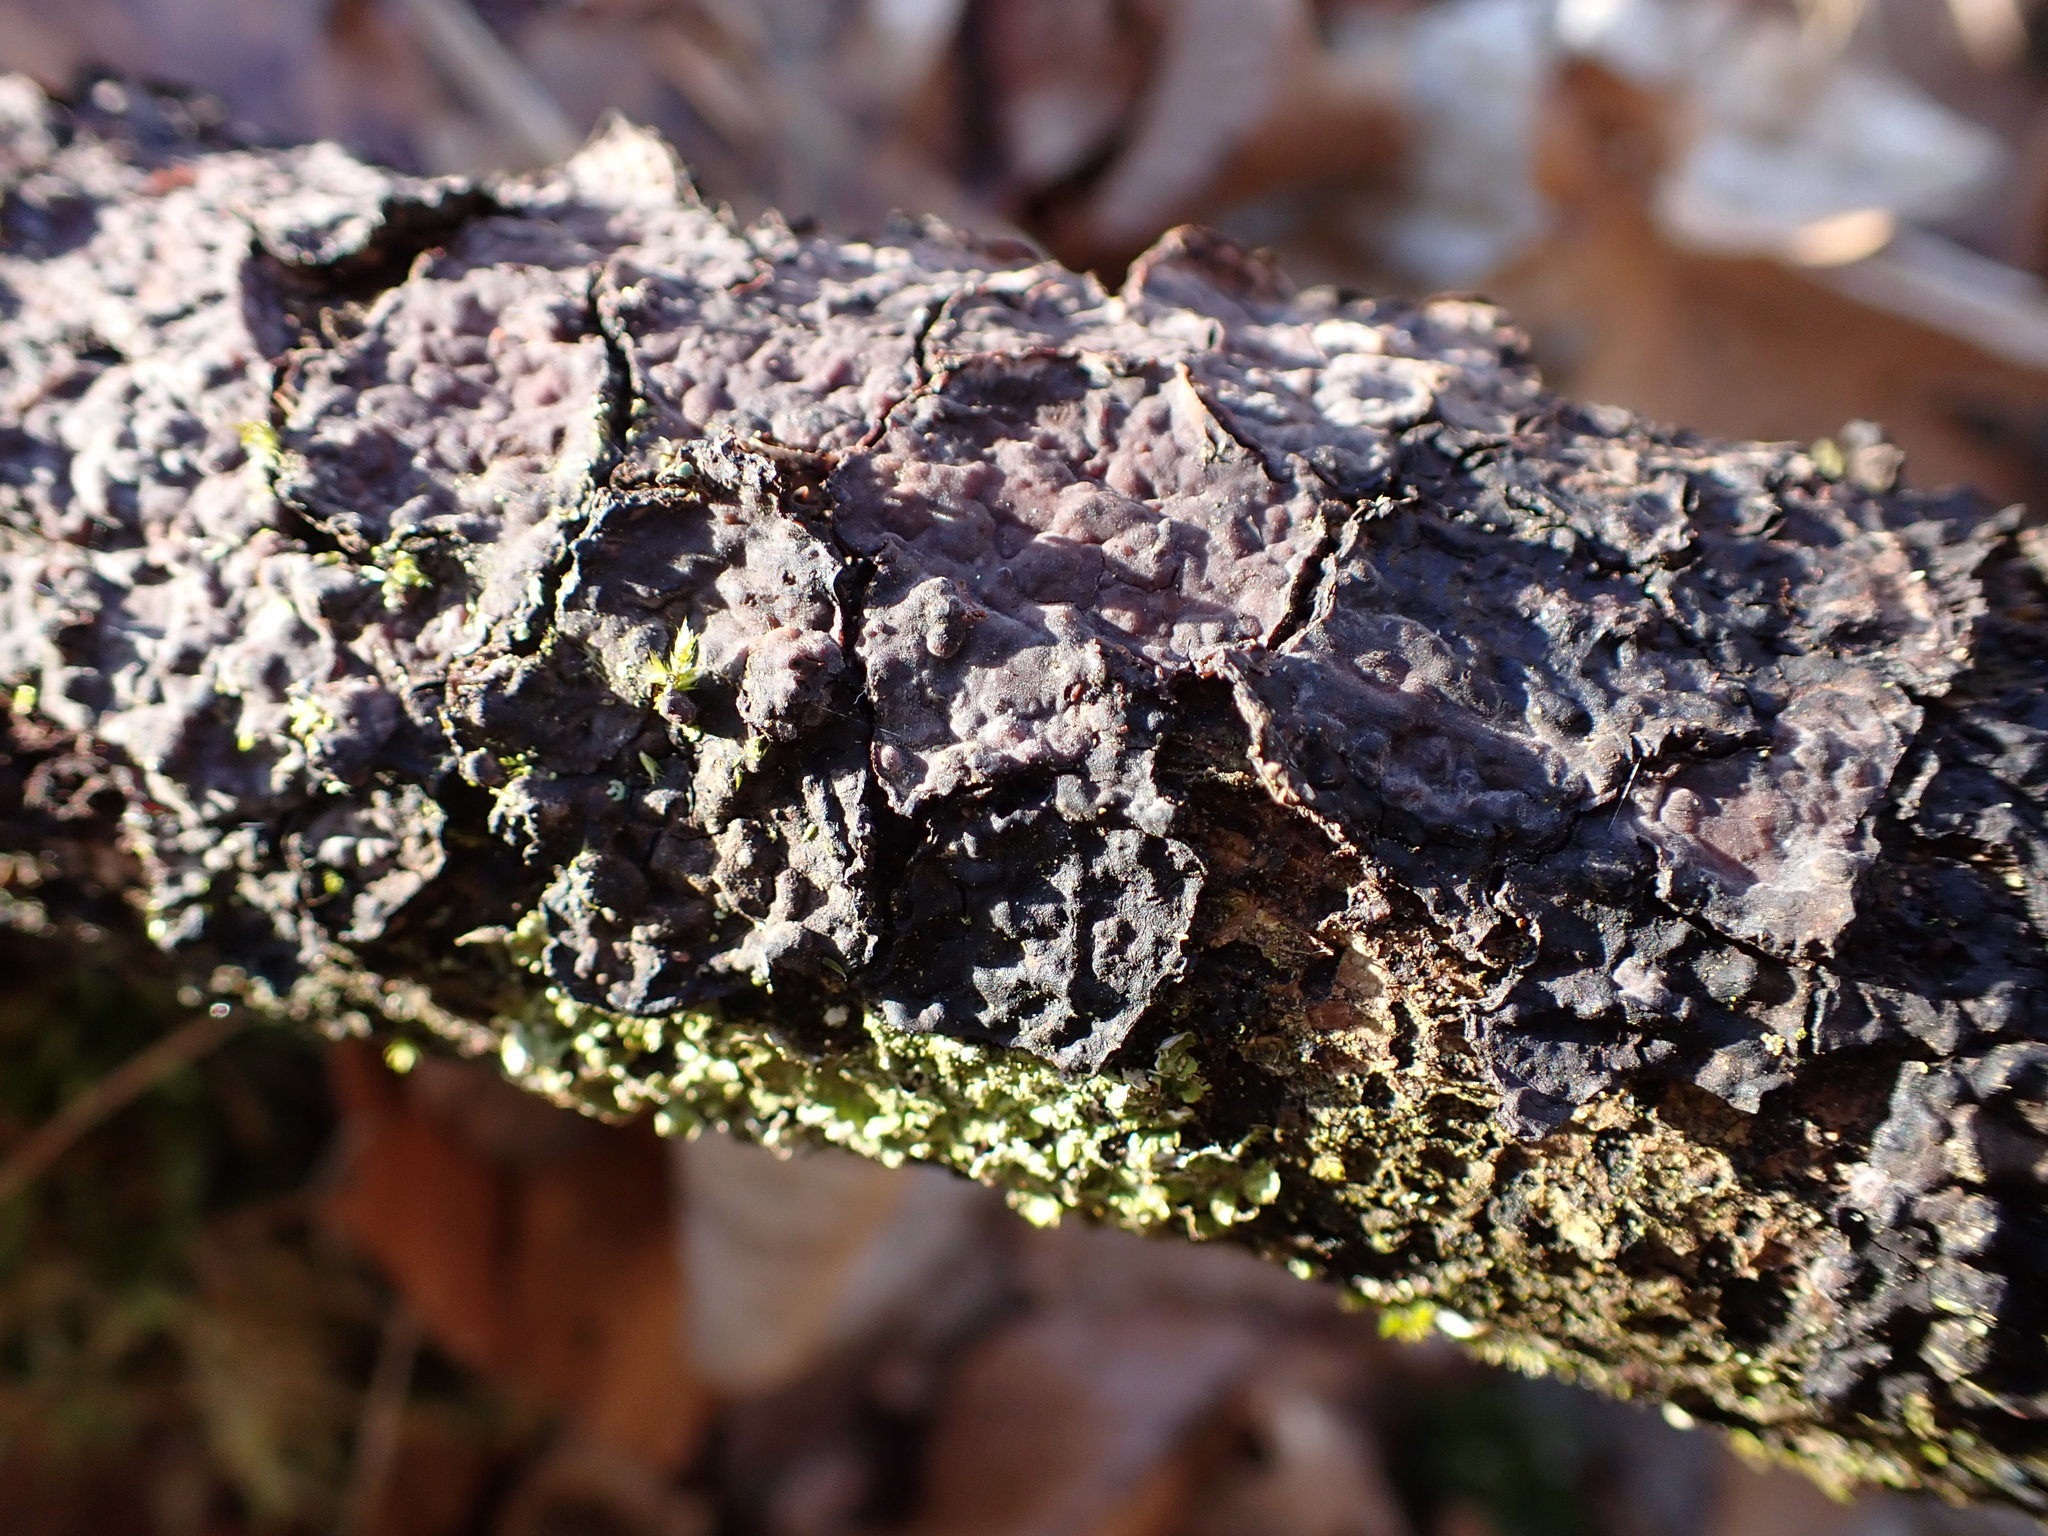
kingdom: Fungi
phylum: Basidiomycota
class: Agaricomycetes
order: Russulales
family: Peniophoraceae
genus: Peniophora
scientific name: Peniophora quercina
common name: Oak crust
